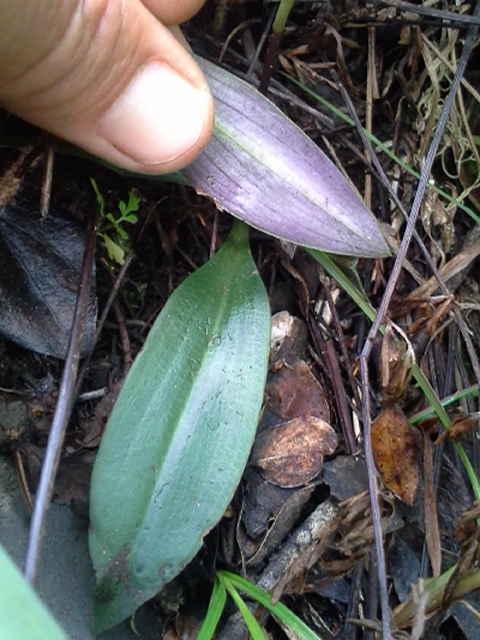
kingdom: Plantae
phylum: Tracheophyta
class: Liliopsida
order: Asparagales
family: Orchidaceae
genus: Cynorkis
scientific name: Cynorkis kassneriana
